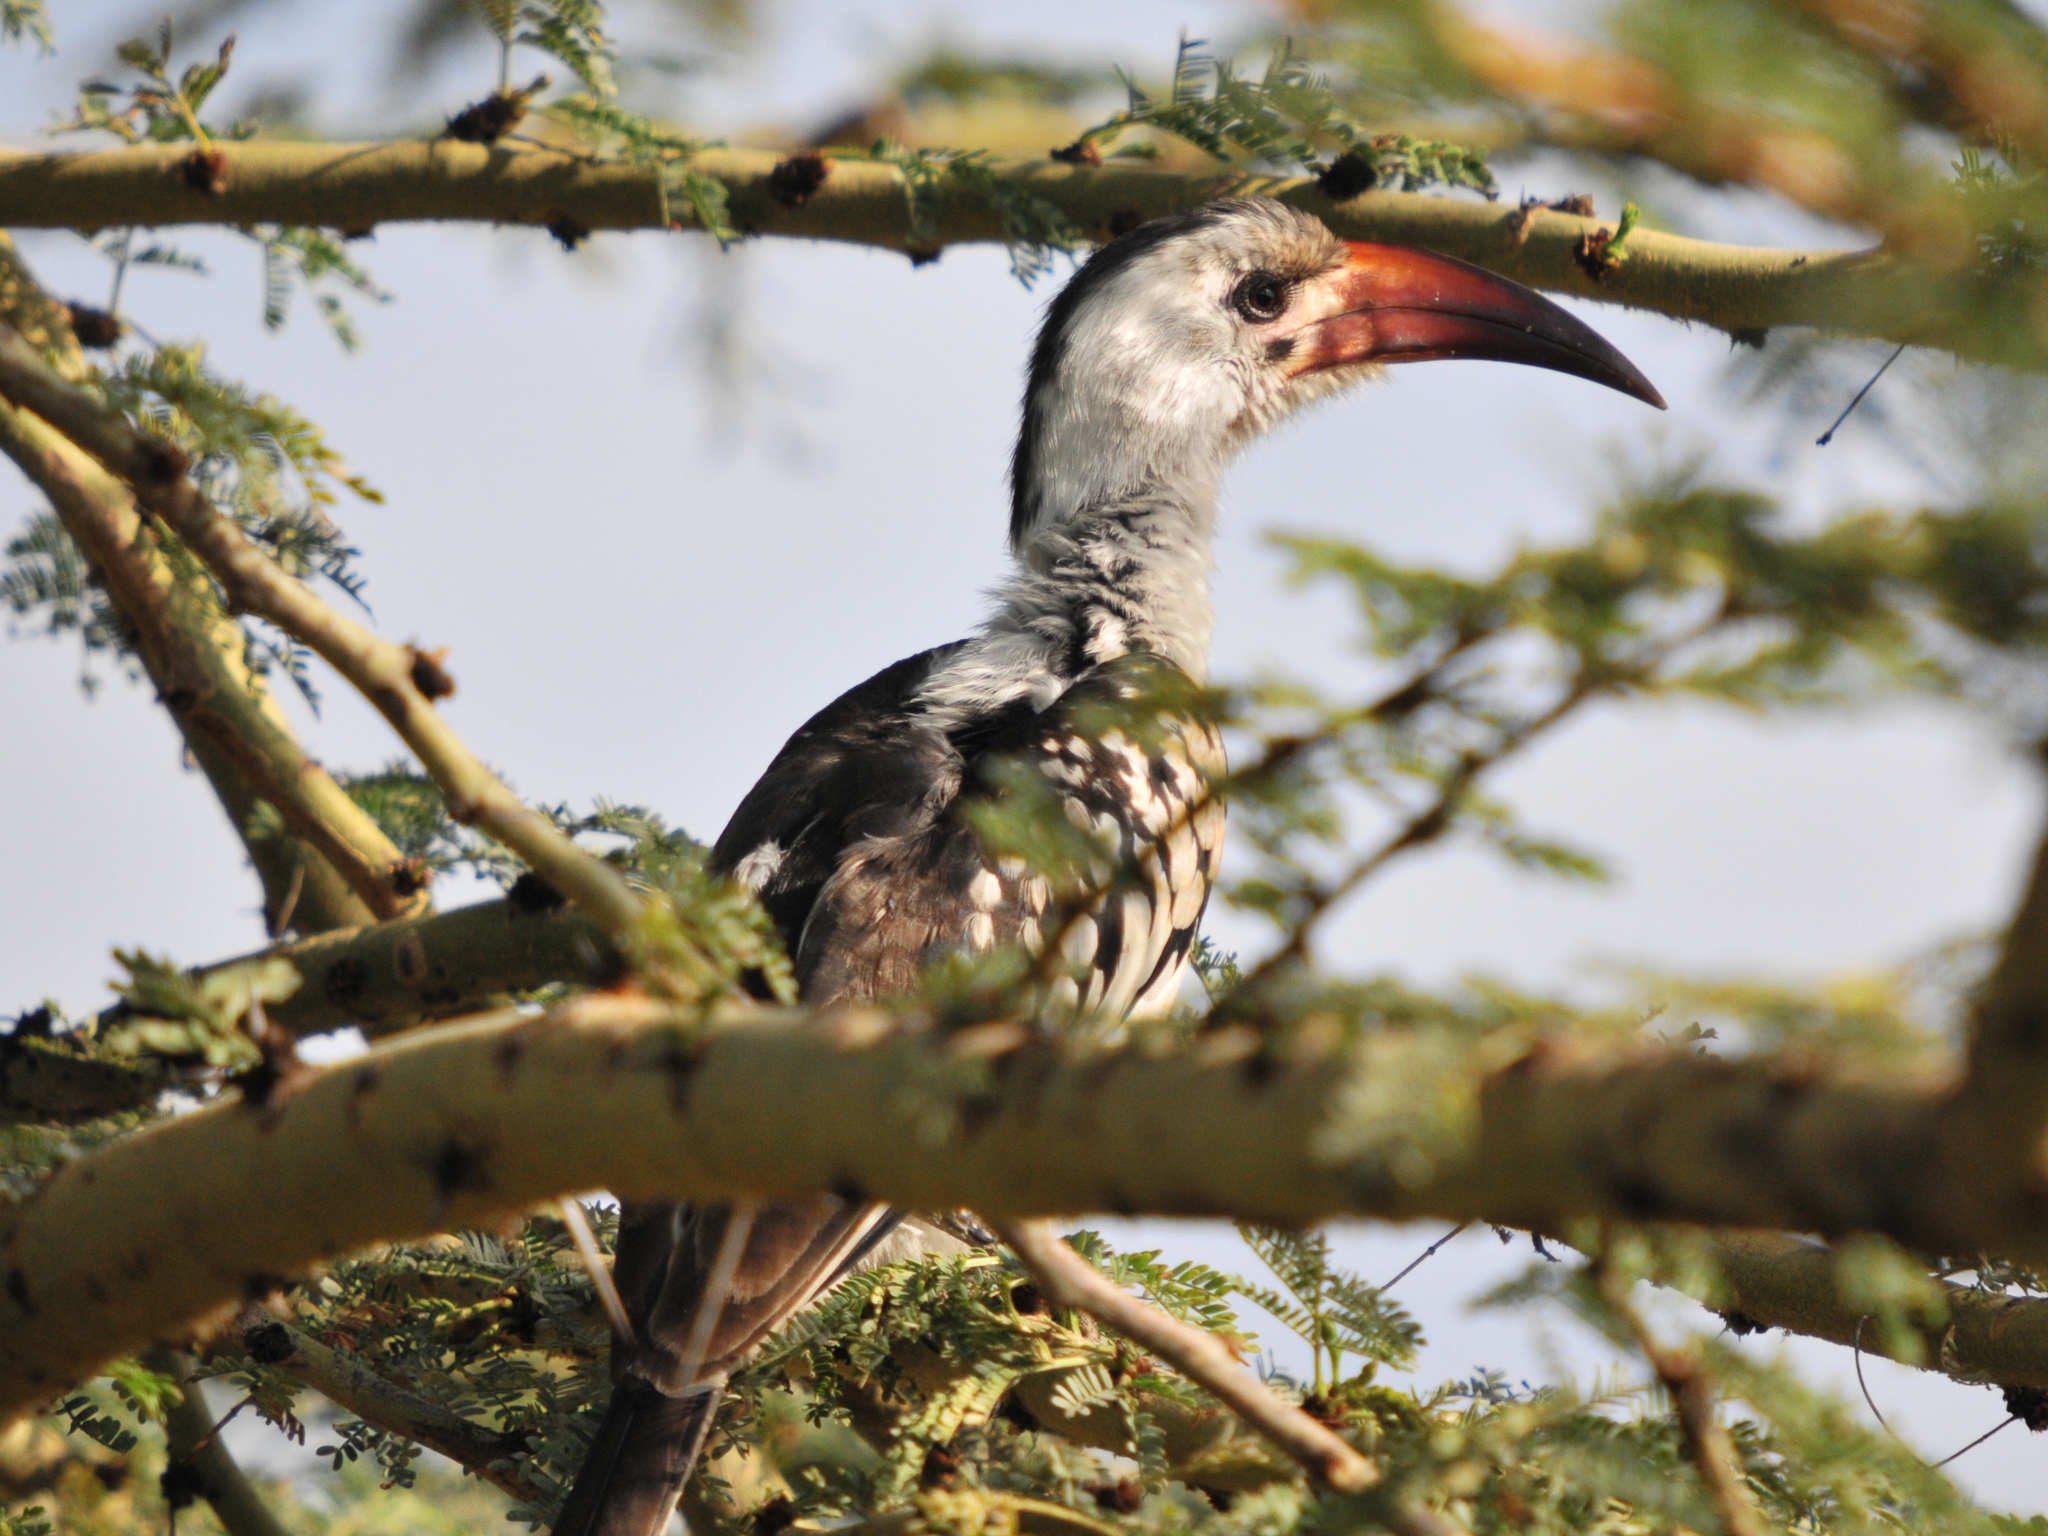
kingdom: Animalia
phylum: Chordata
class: Aves
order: Bucerotiformes
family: Bucerotidae
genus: Tockus
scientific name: Tockus erythrorhynchus
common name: Northern red-billed hornbill
